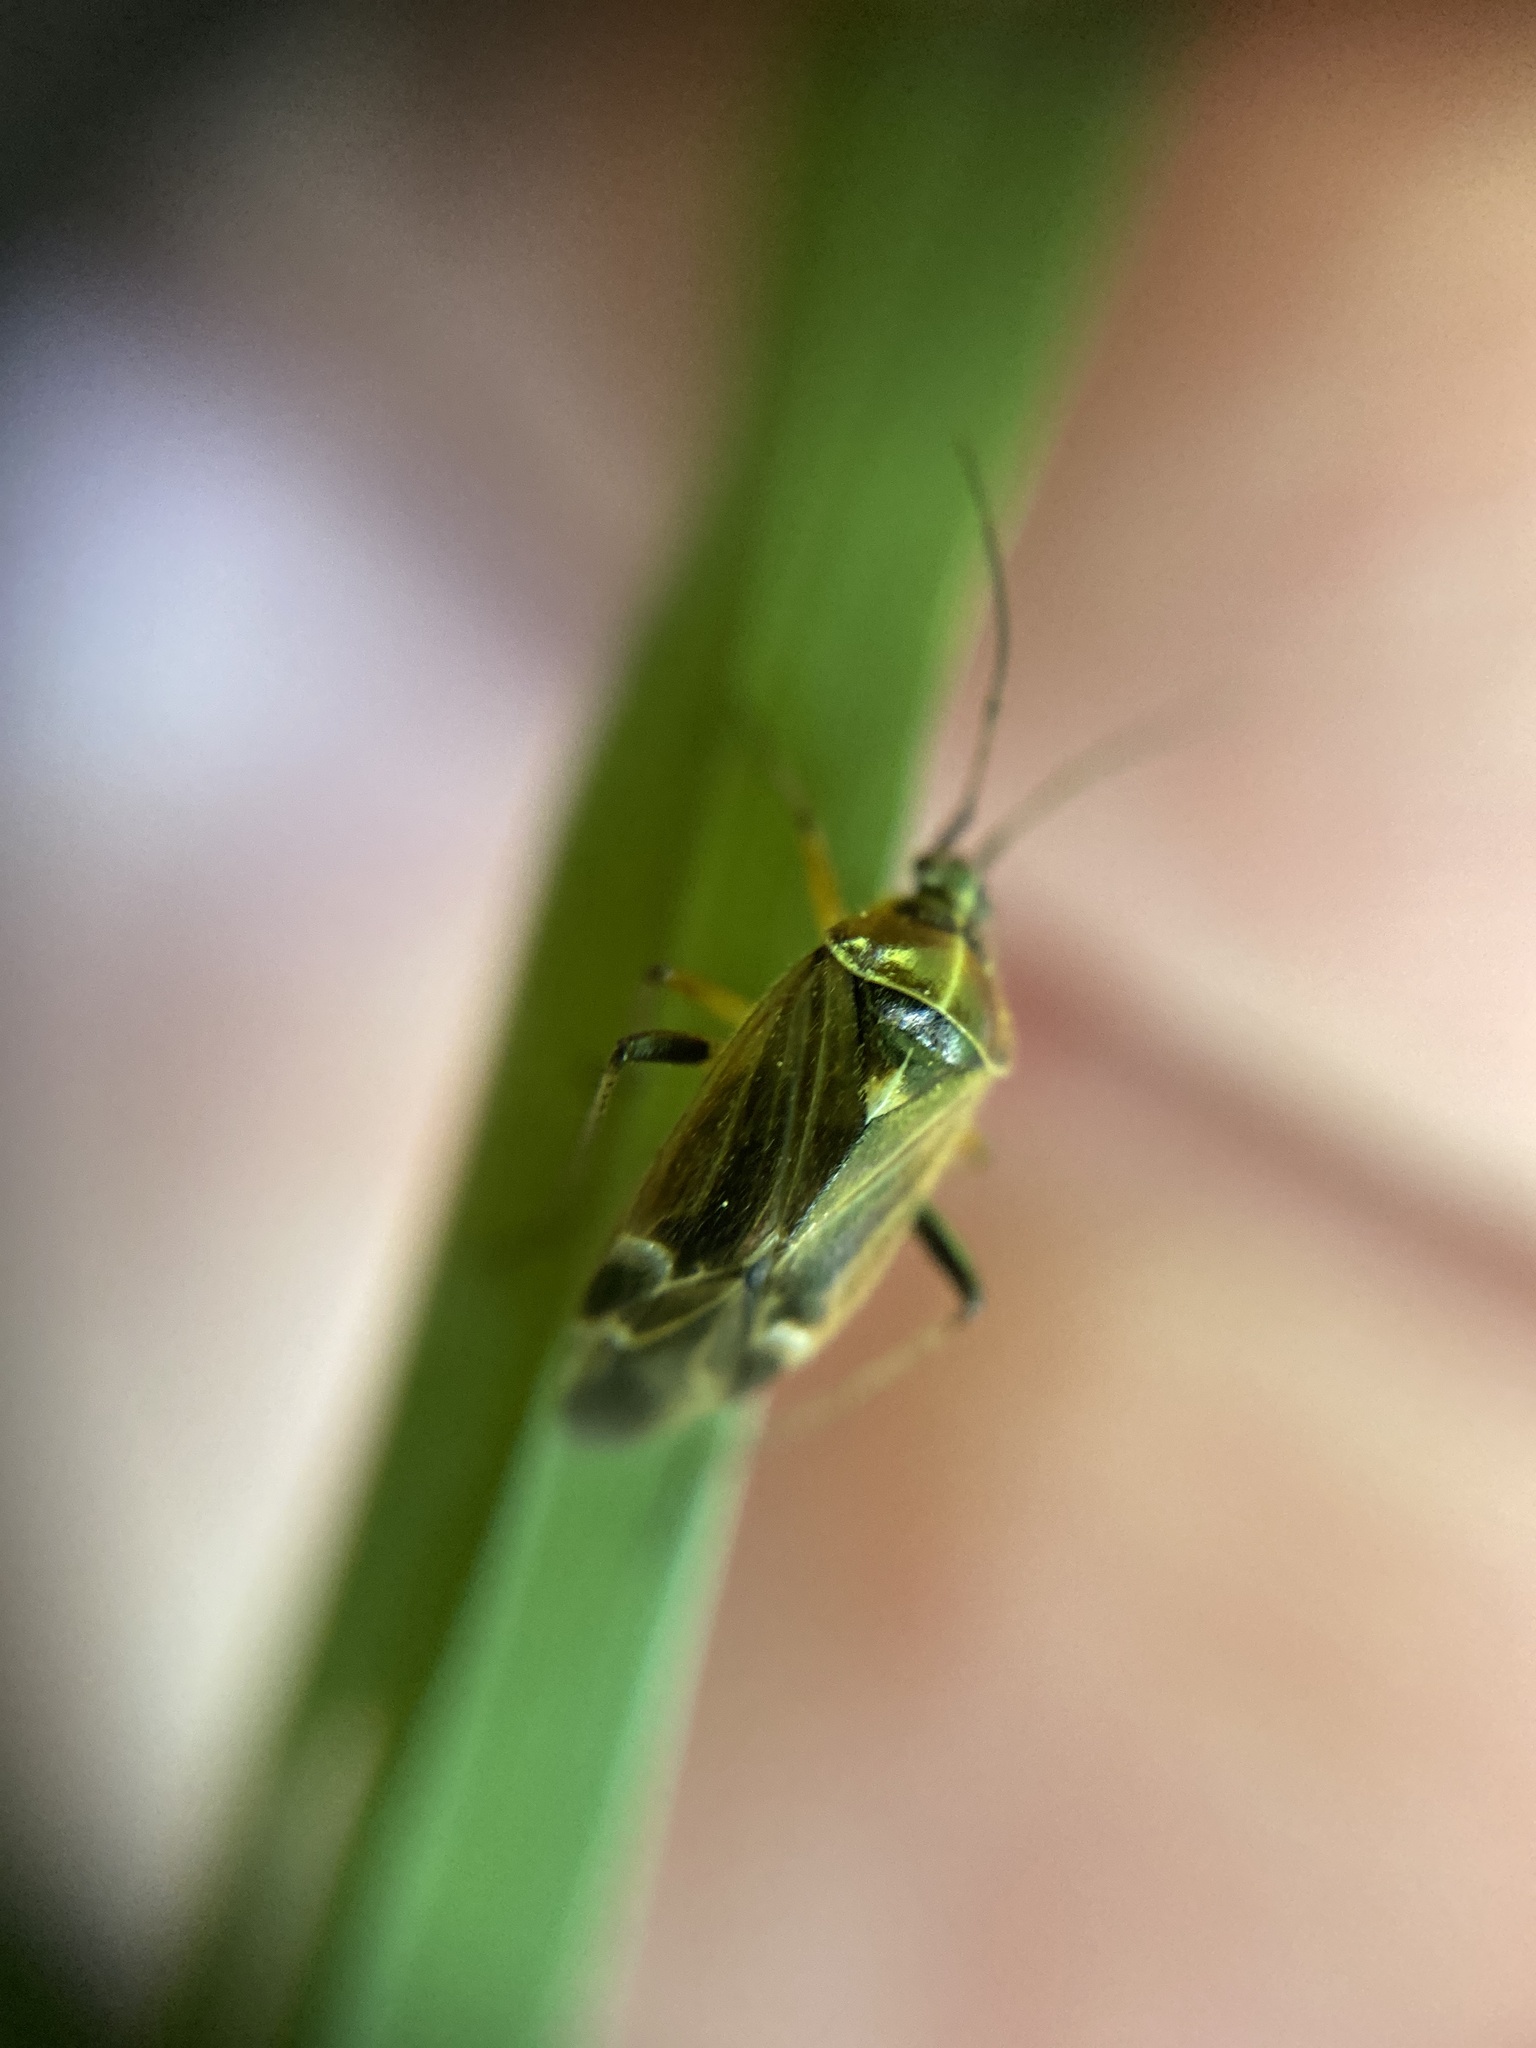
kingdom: Animalia
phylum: Arthropoda
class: Insecta
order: Hemiptera
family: Miridae
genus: Harpocera
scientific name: Harpocera thoracica
